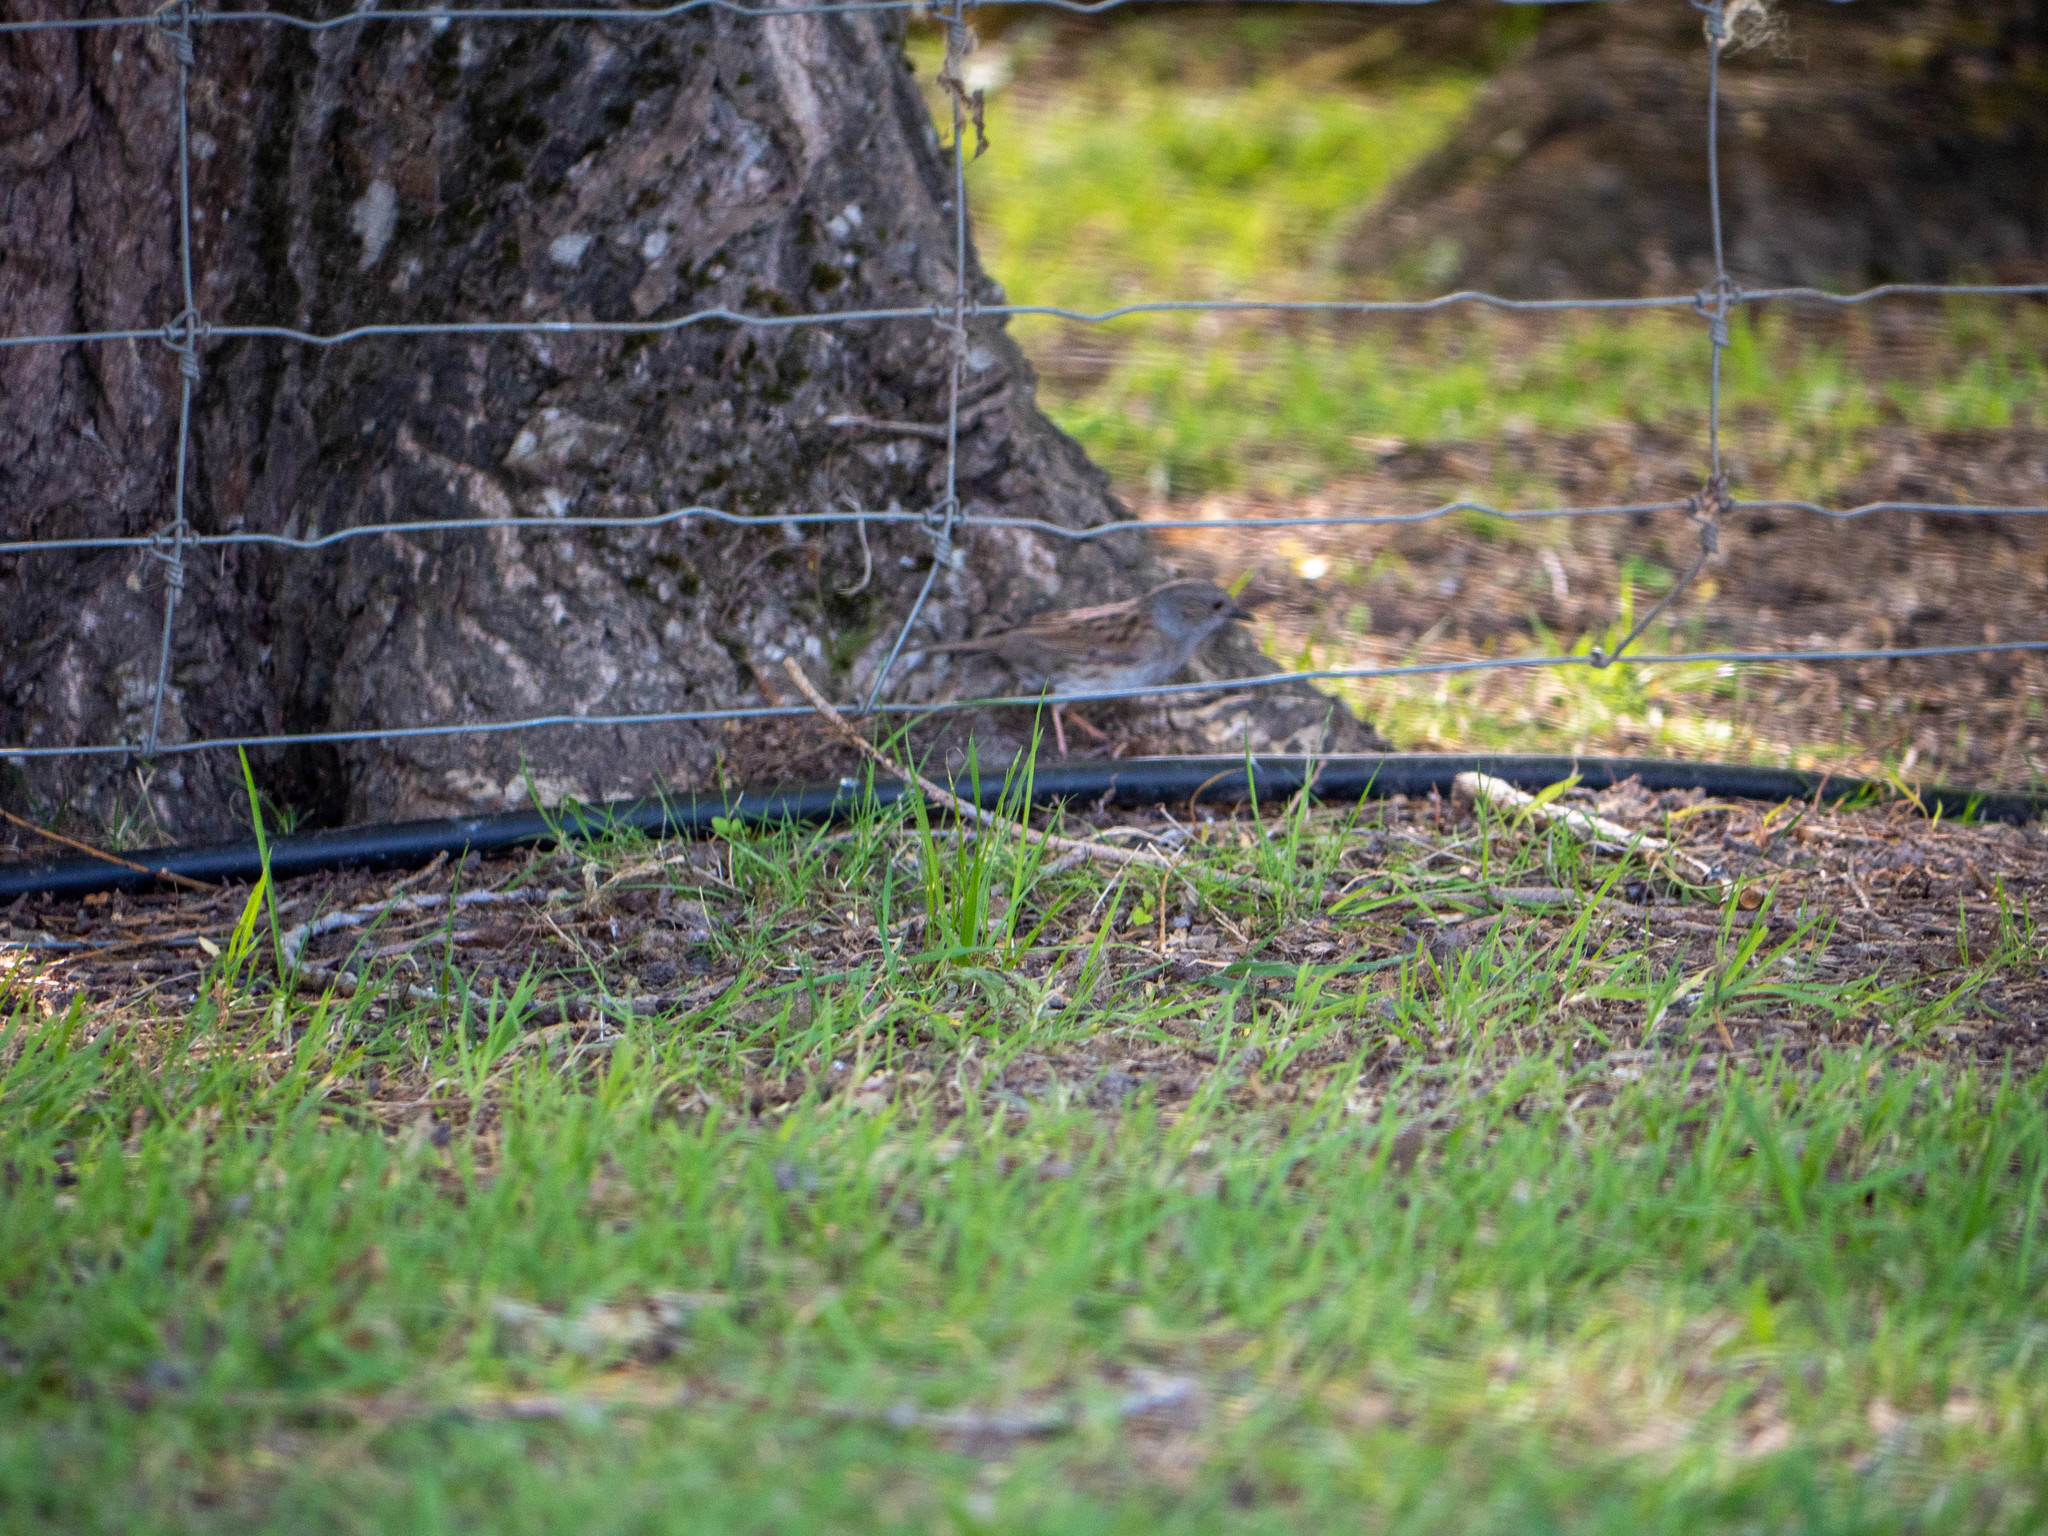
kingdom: Animalia
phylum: Chordata
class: Aves
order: Passeriformes
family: Prunellidae
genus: Prunella
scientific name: Prunella modularis
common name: Dunnock
